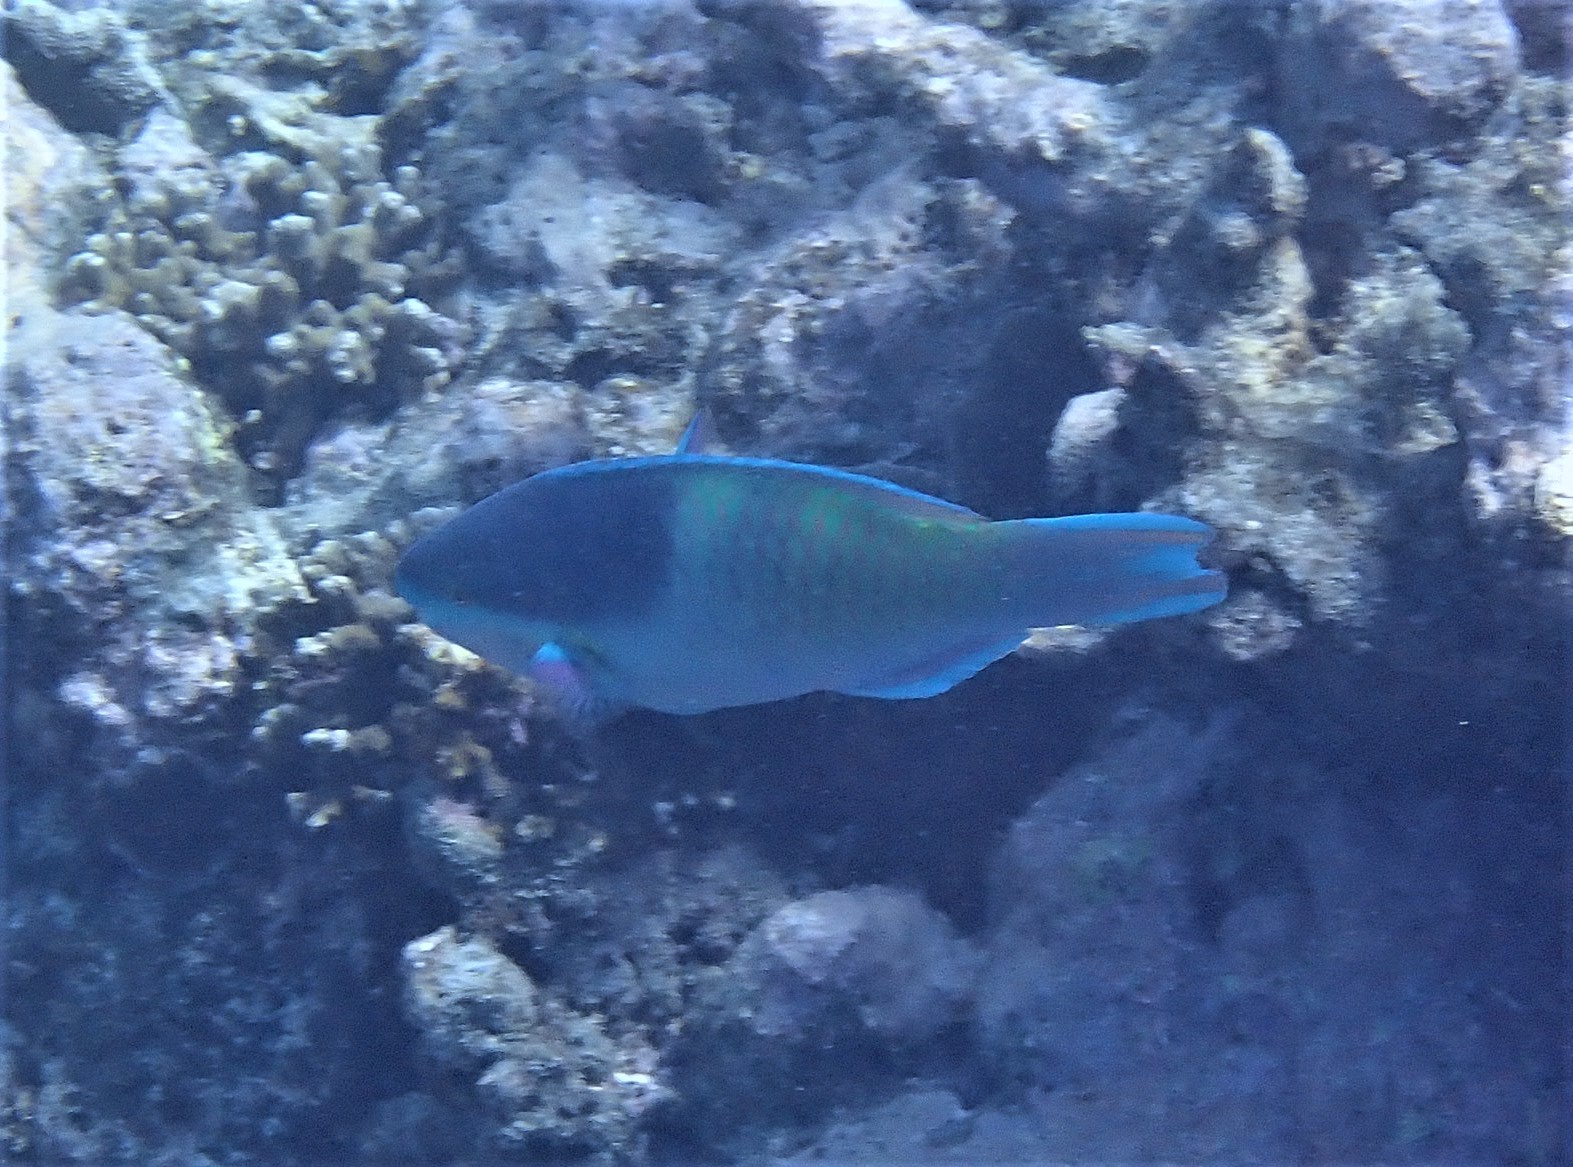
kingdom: Animalia
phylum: Chordata
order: Perciformes
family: Scaridae
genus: Scarus
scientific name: Scarus scaber
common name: Dusky-capped parrotfish
